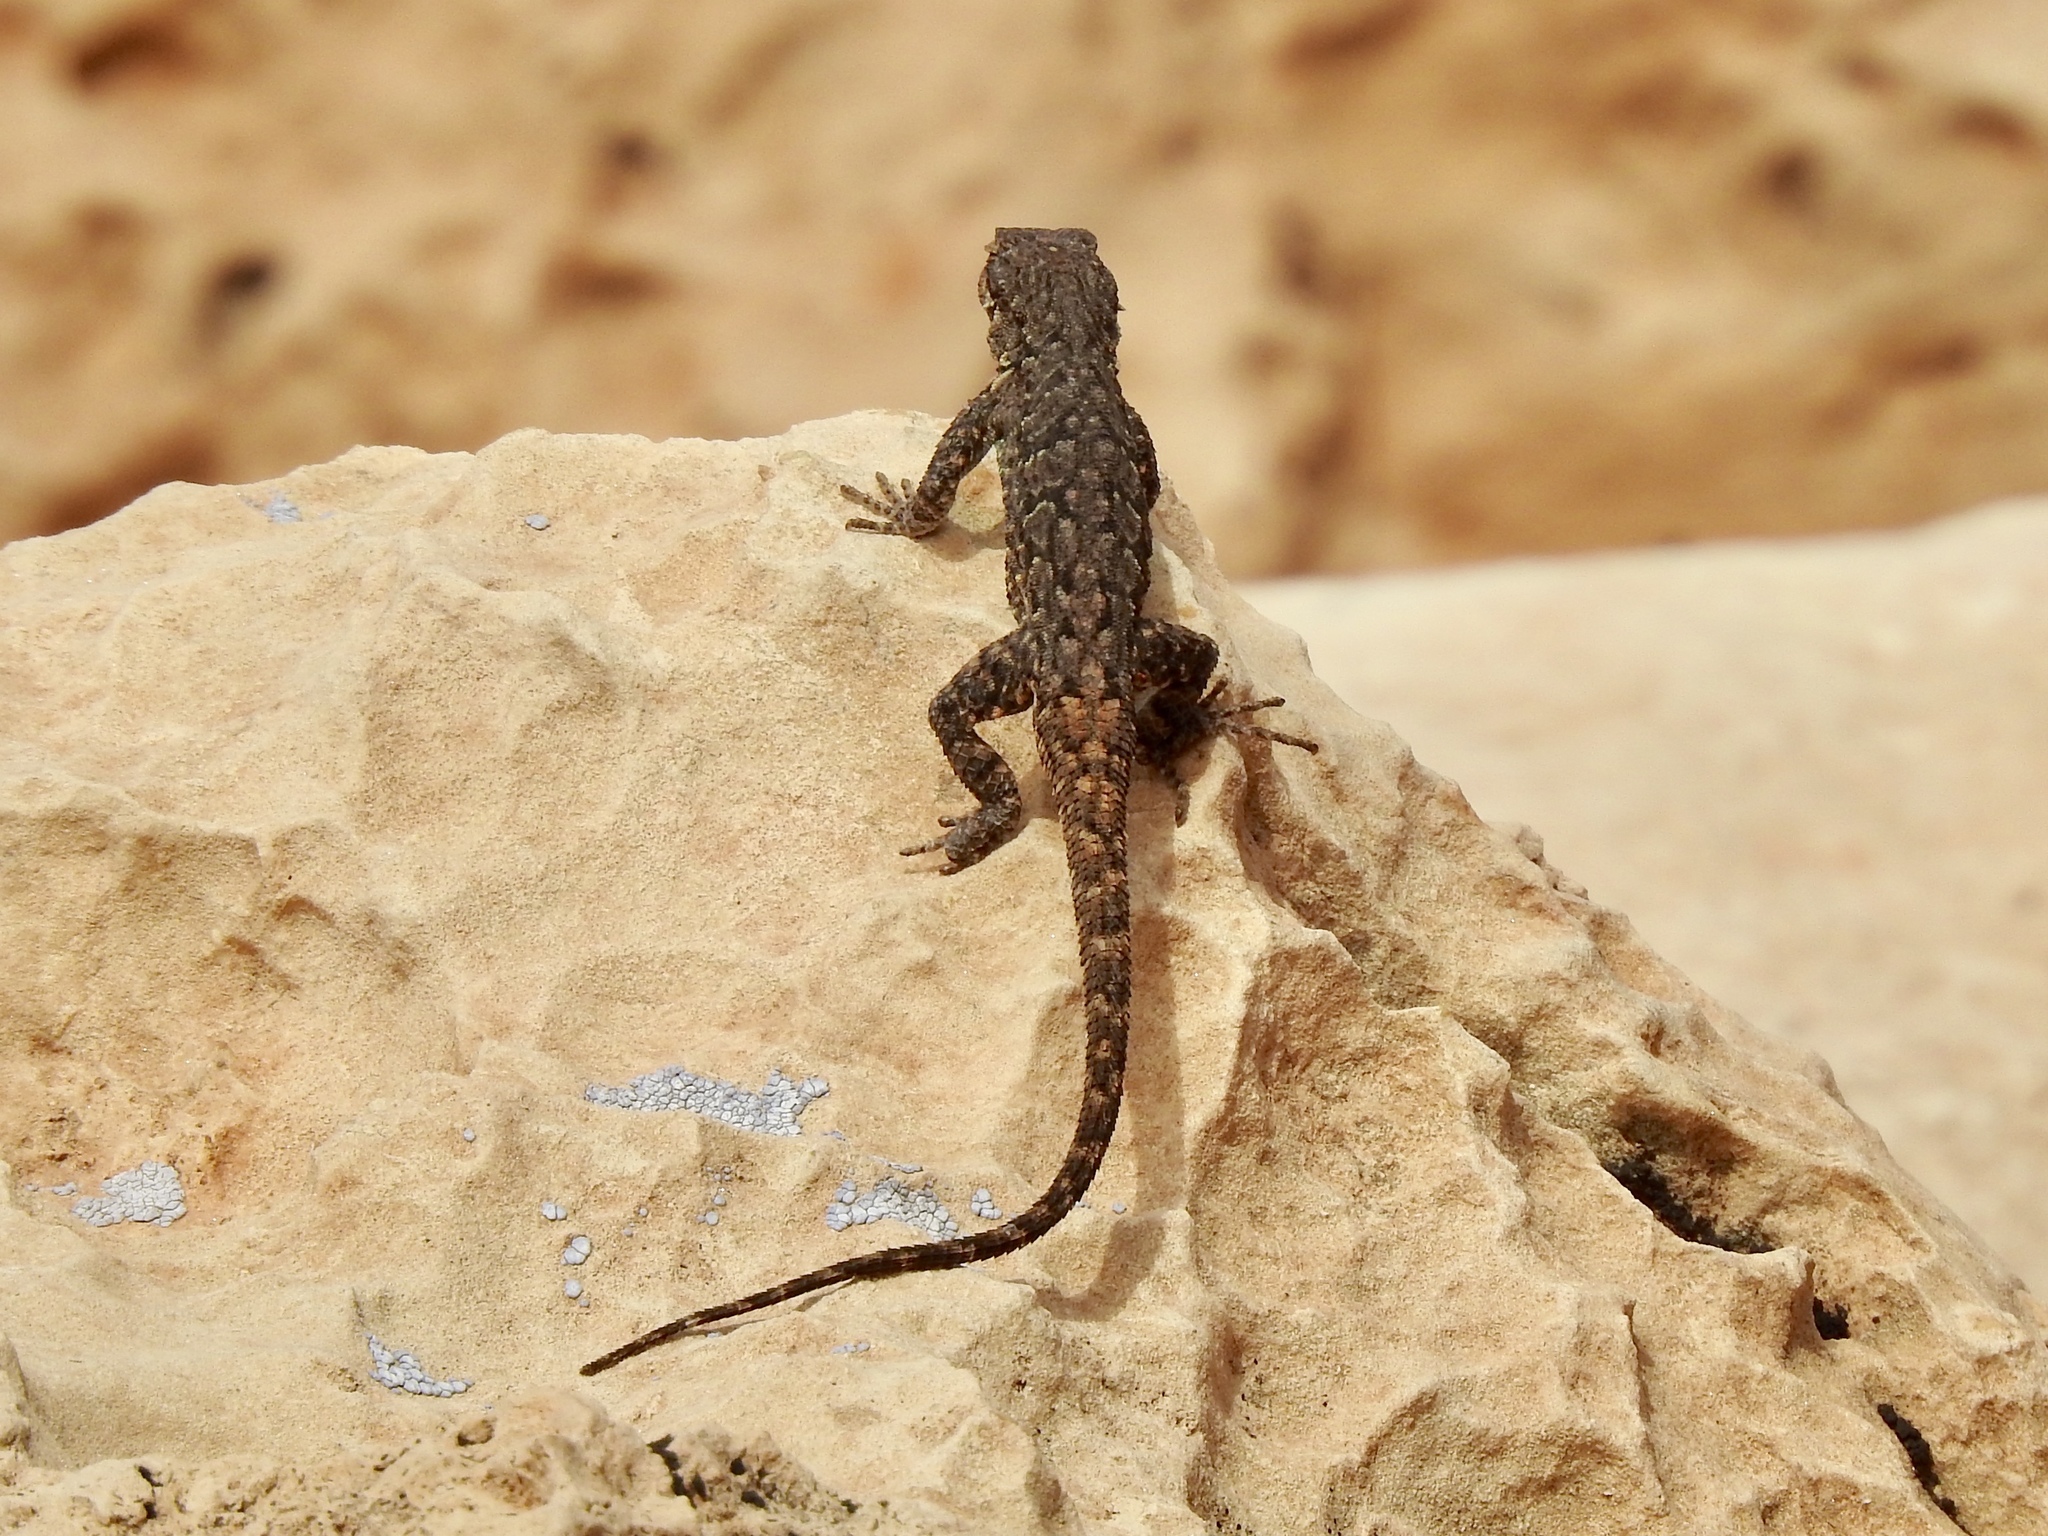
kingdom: Animalia
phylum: Chordata
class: Squamata
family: Phrynosomatidae
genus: Urosaurus
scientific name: Urosaurus ornatus
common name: Ornate tree lizard
